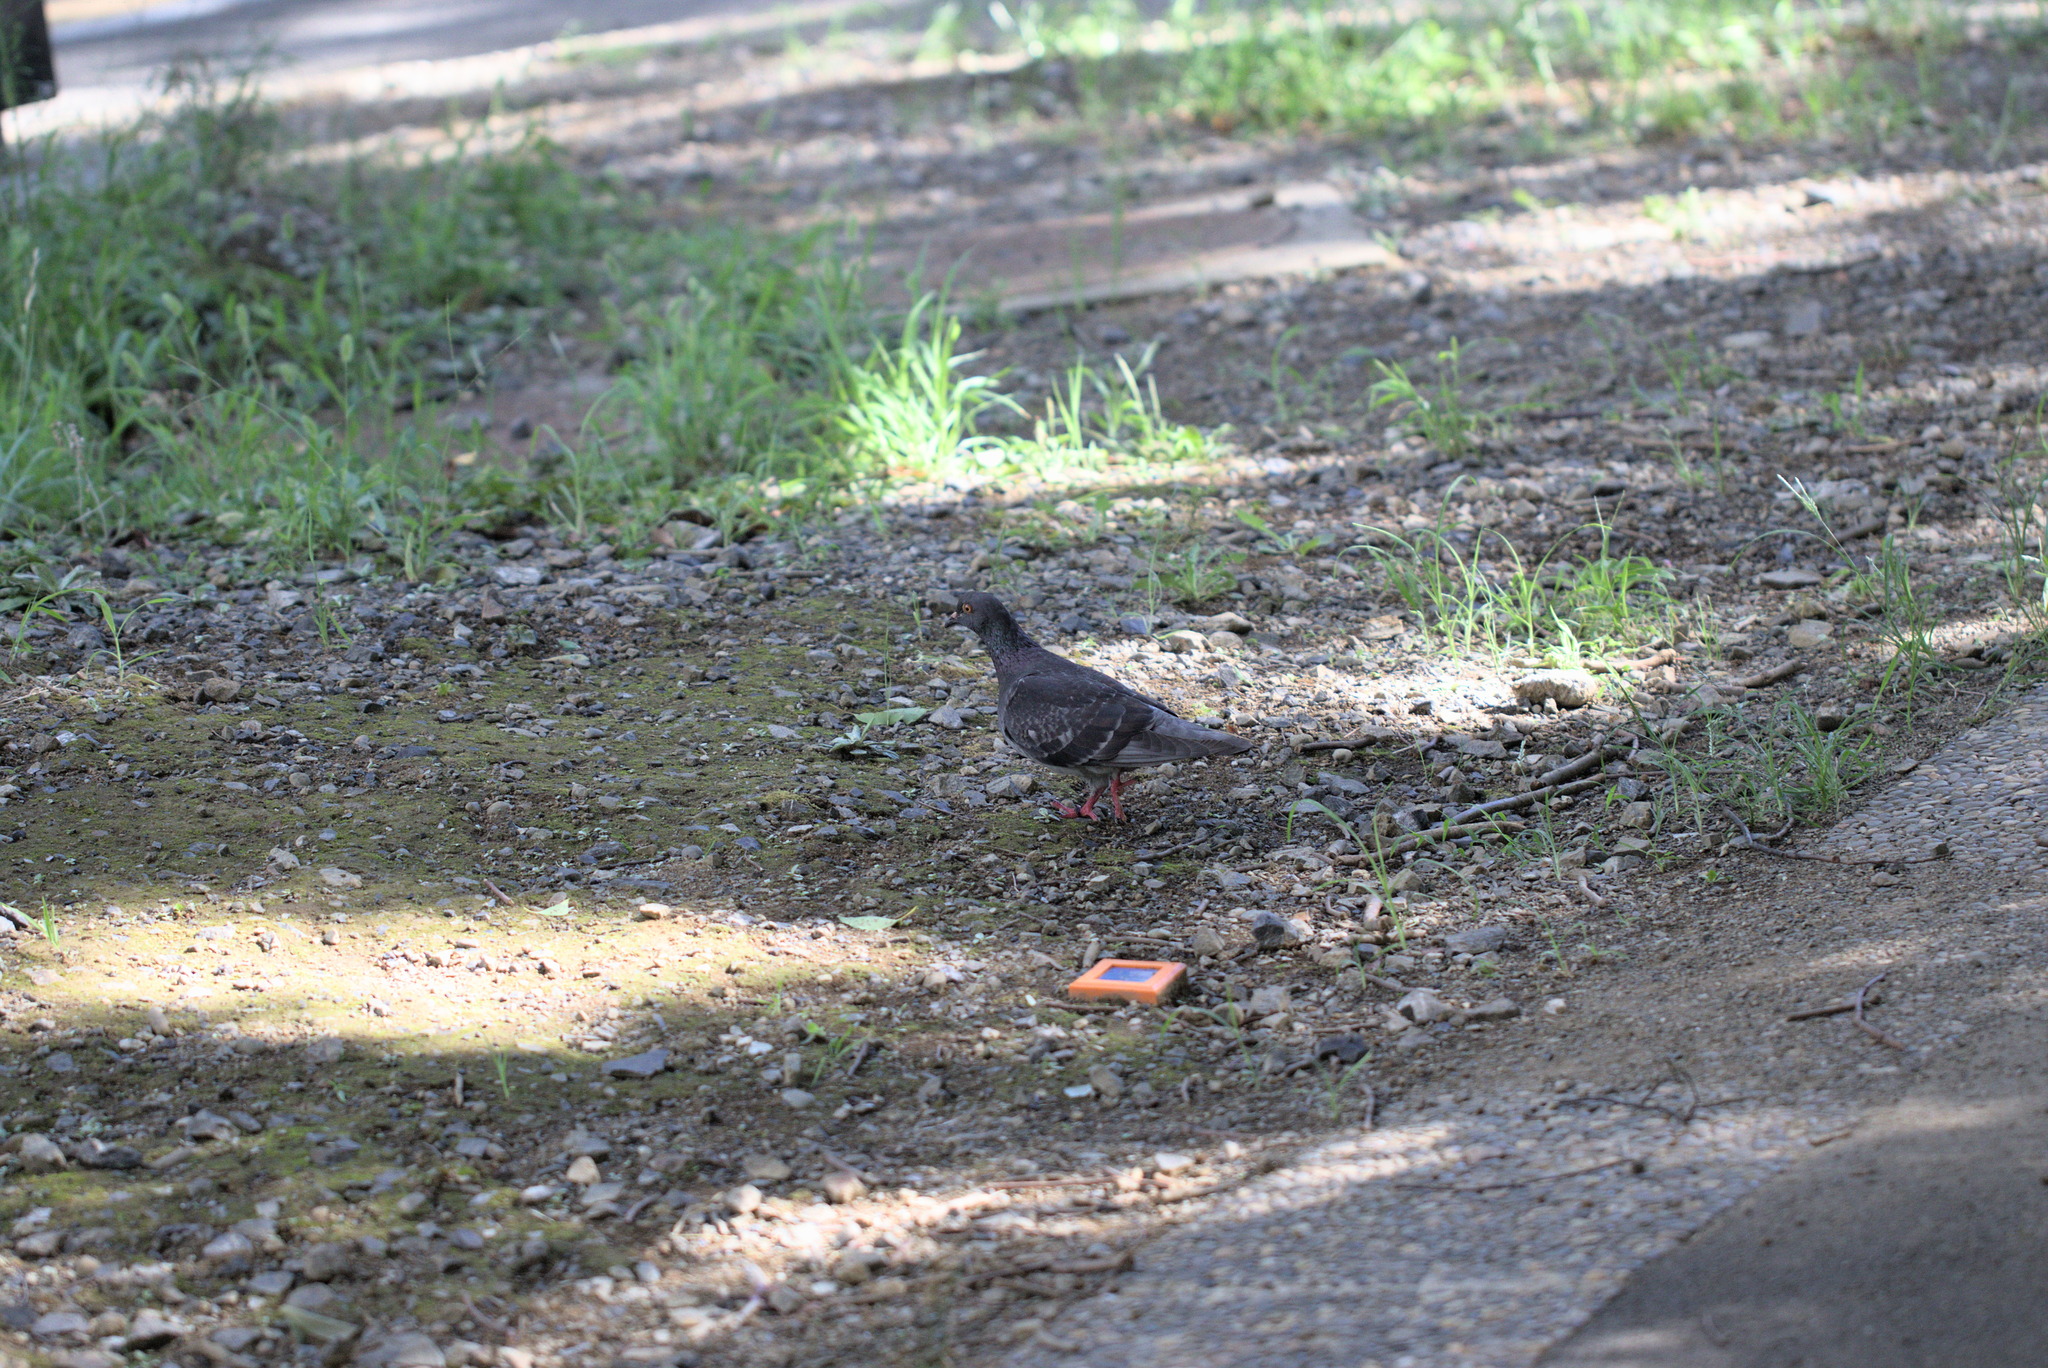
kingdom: Animalia
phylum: Chordata
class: Aves
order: Columbiformes
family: Columbidae
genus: Columba
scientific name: Columba livia
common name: Rock pigeon
